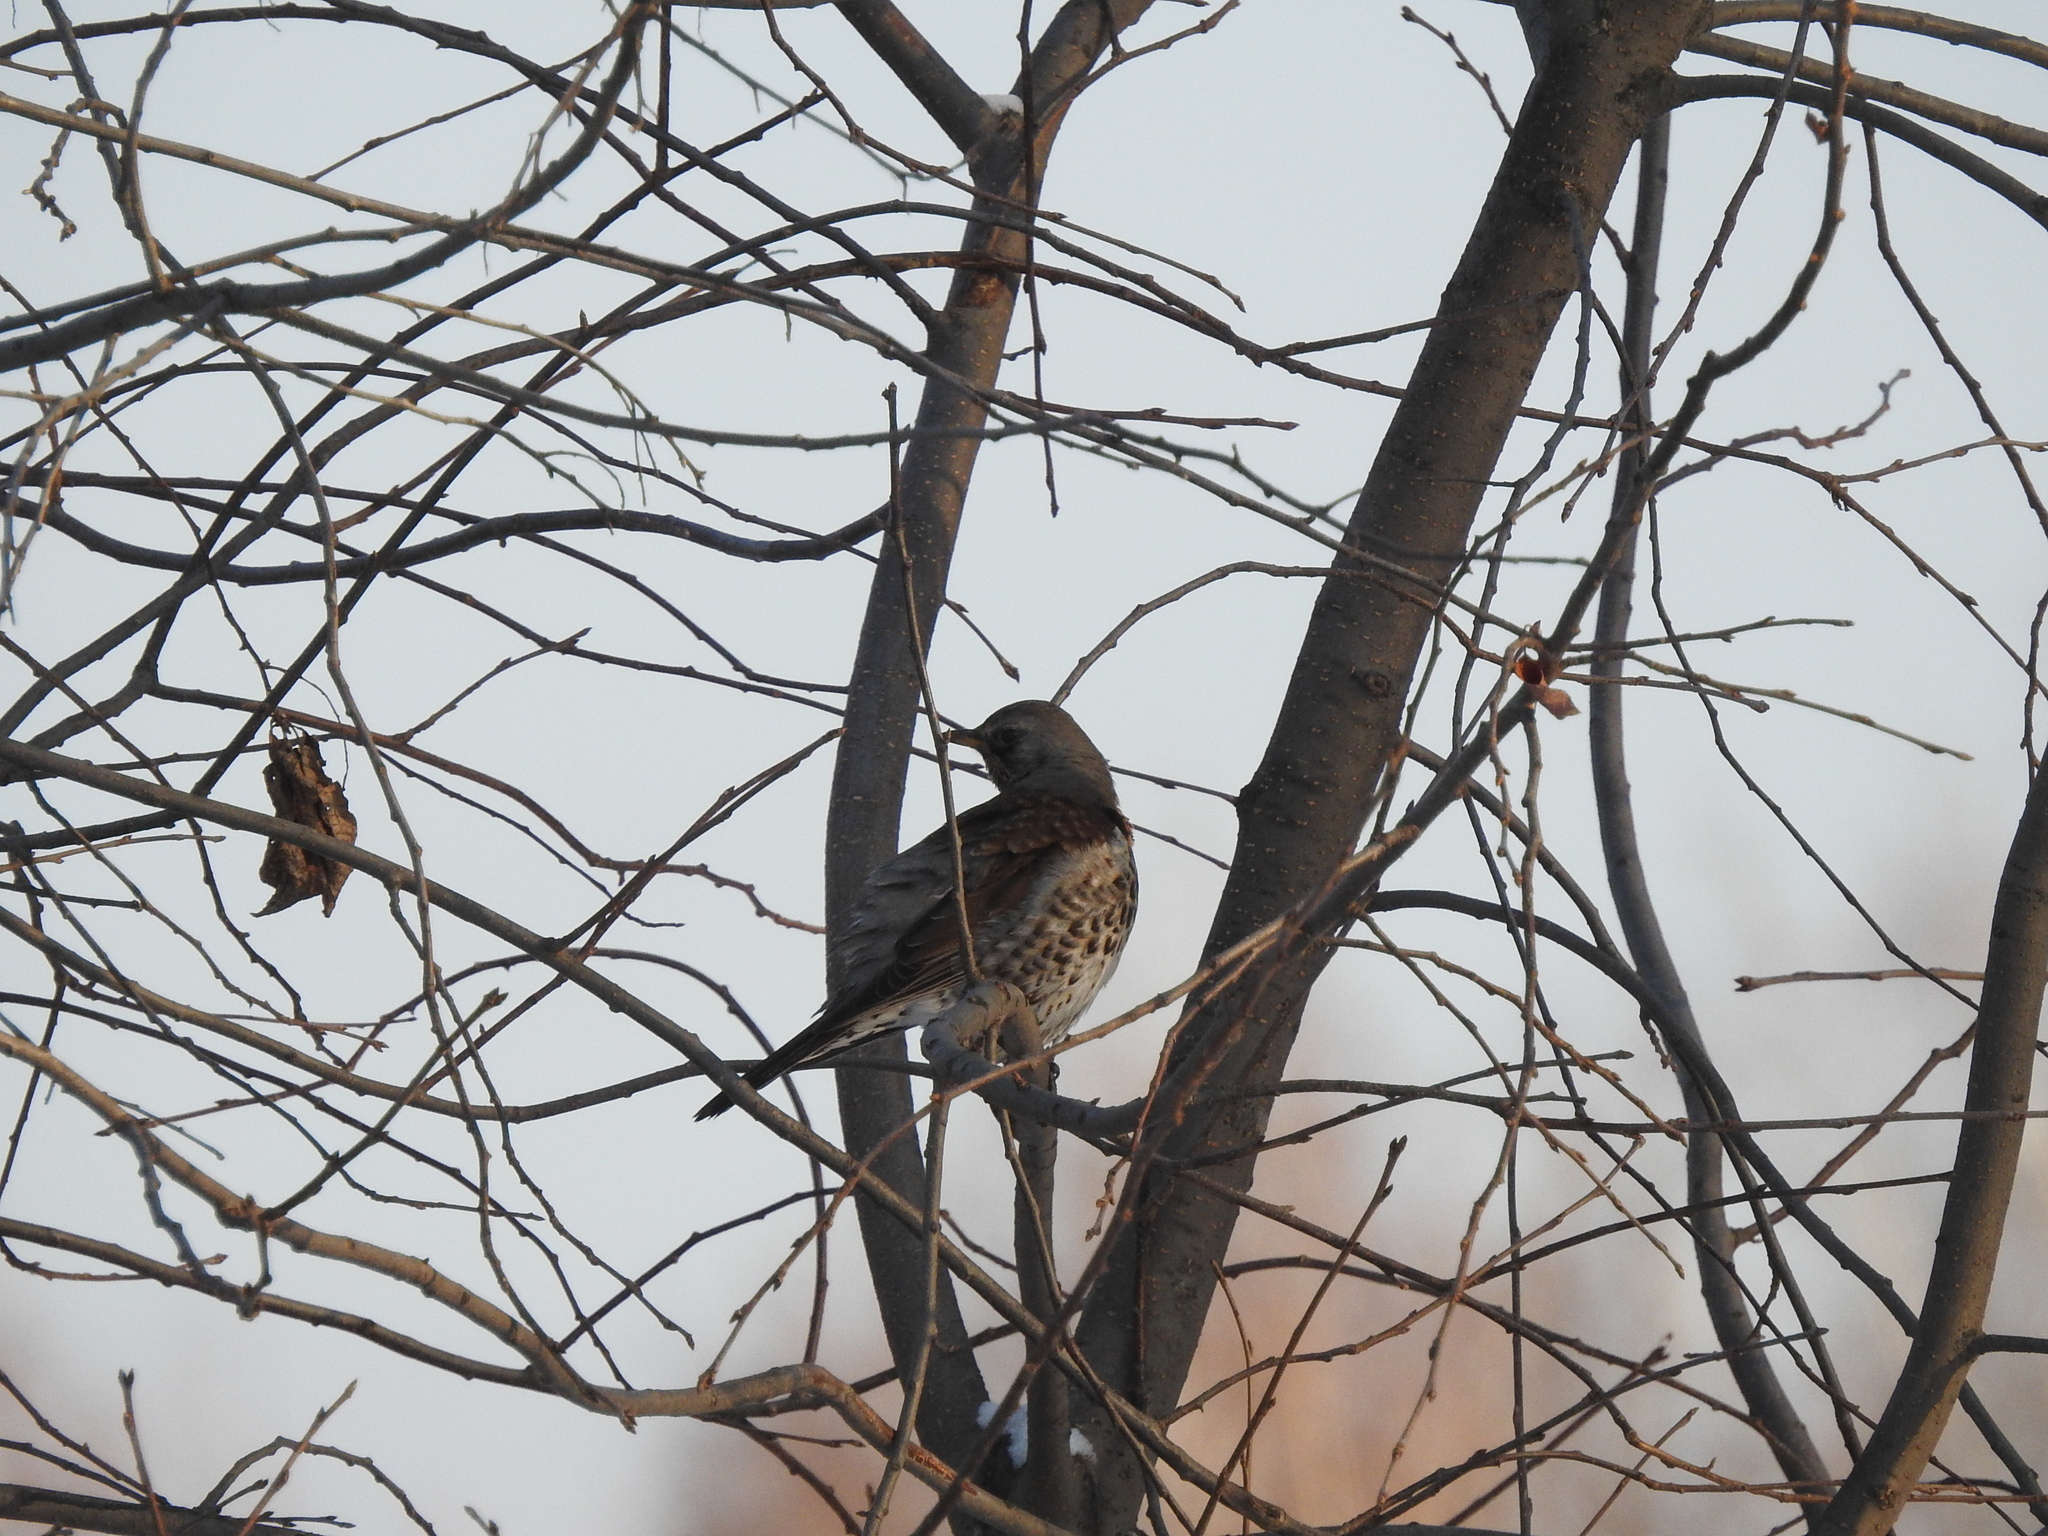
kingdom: Animalia
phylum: Chordata
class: Aves
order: Passeriformes
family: Turdidae
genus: Turdus
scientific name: Turdus pilaris
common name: Fieldfare
